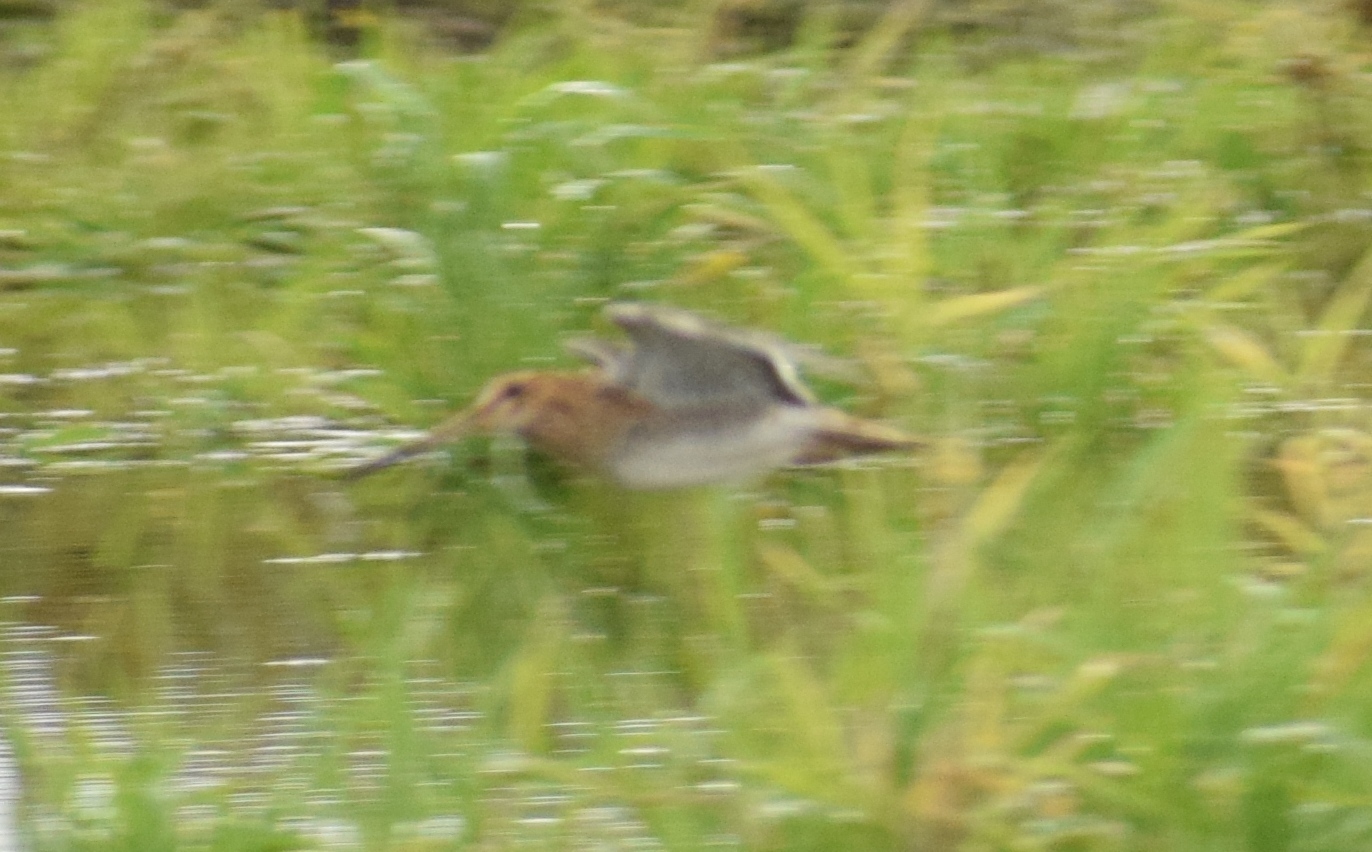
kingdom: Animalia
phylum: Chordata
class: Aves
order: Charadriiformes
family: Scolopacidae
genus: Gallinago
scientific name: Gallinago gallinago
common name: Common snipe
